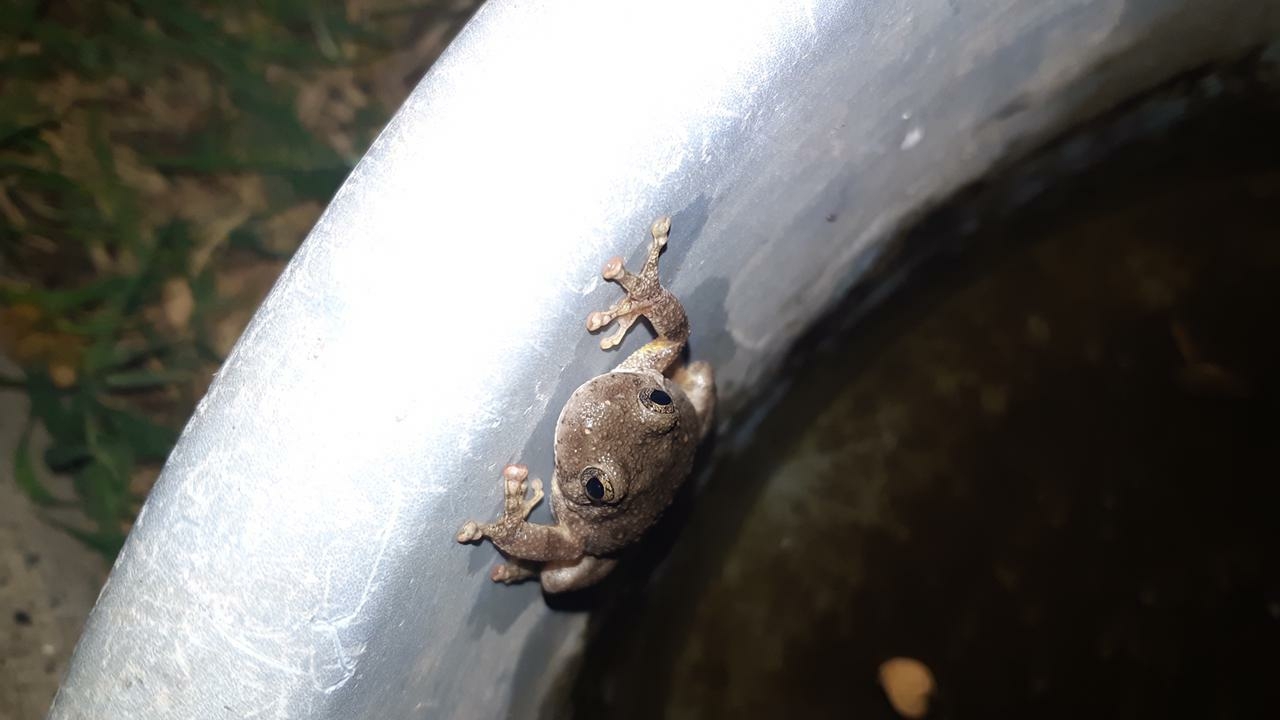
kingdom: Animalia
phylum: Chordata
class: Amphibia
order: Anura
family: Hylidae
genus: Dryophytes
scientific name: Dryophytes arenicolor
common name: Canyon treefrog
